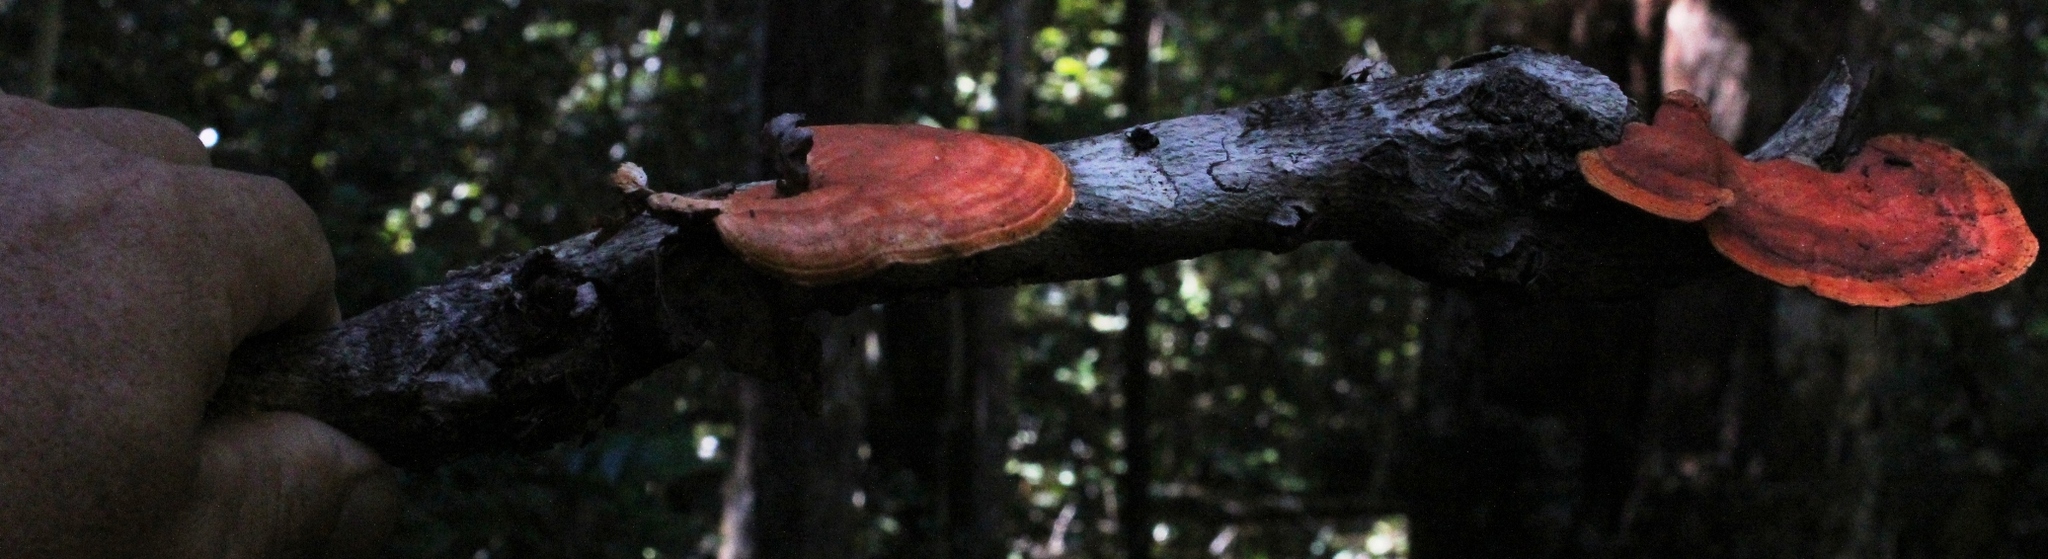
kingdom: Fungi
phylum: Basidiomycota
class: Agaricomycetes
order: Polyporales
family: Polyporaceae
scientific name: Polyporaceae
